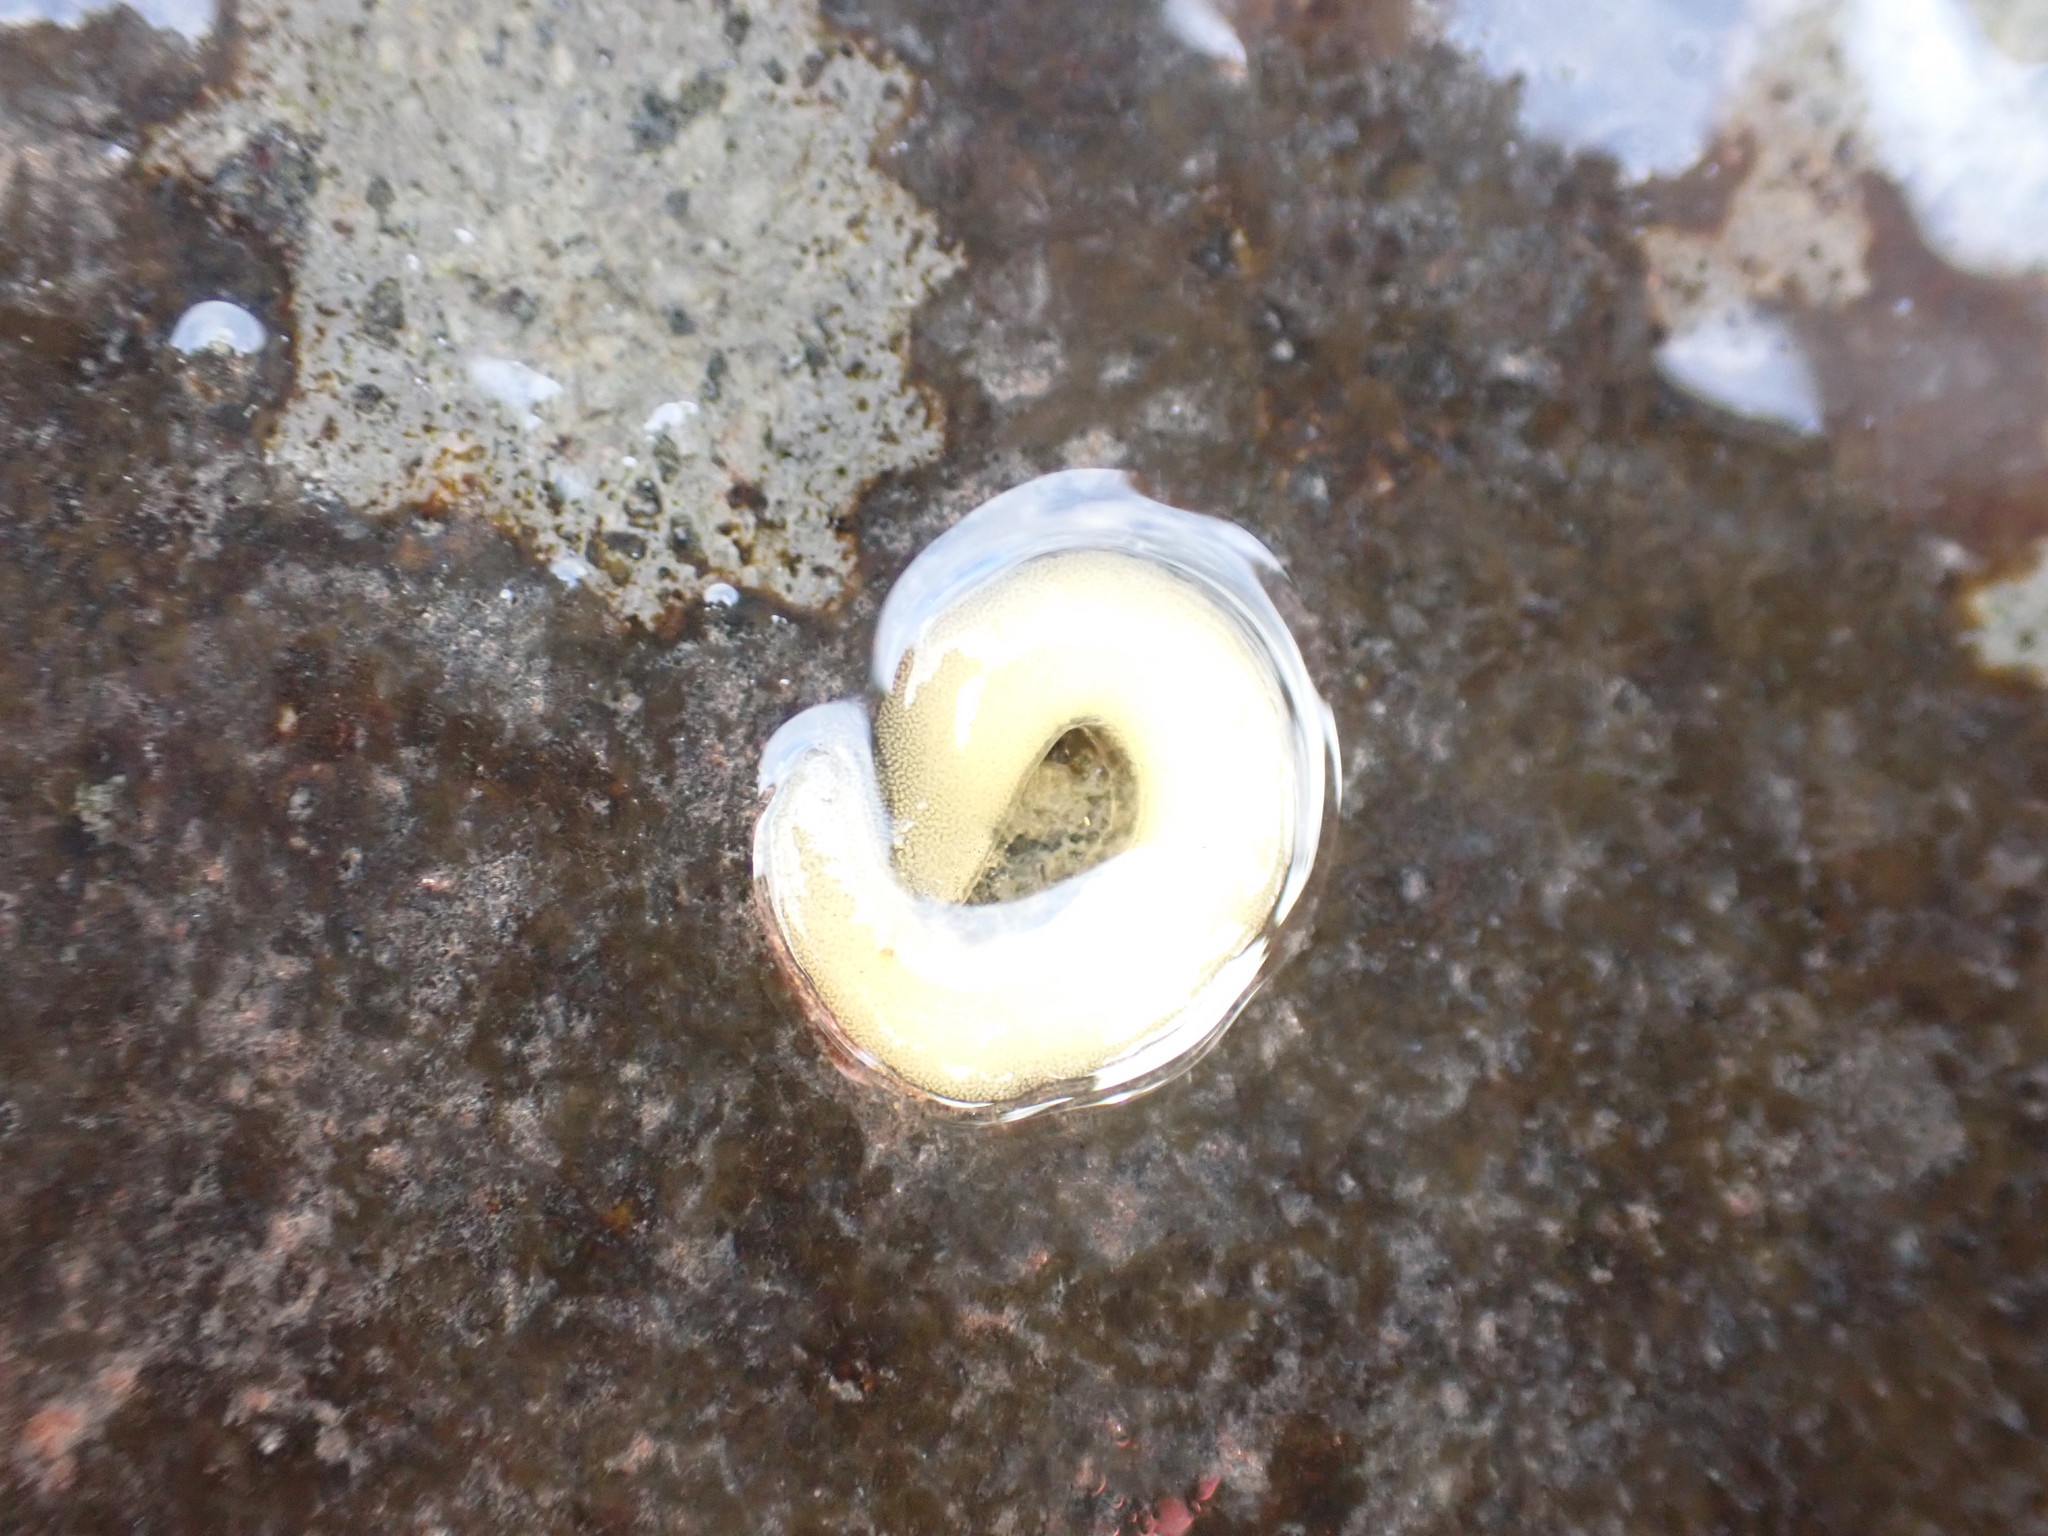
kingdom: Animalia
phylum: Mollusca
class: Gastropoda
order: Siphonariida
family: Siphonariidae
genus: Siphonaria
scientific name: Siphonaria
